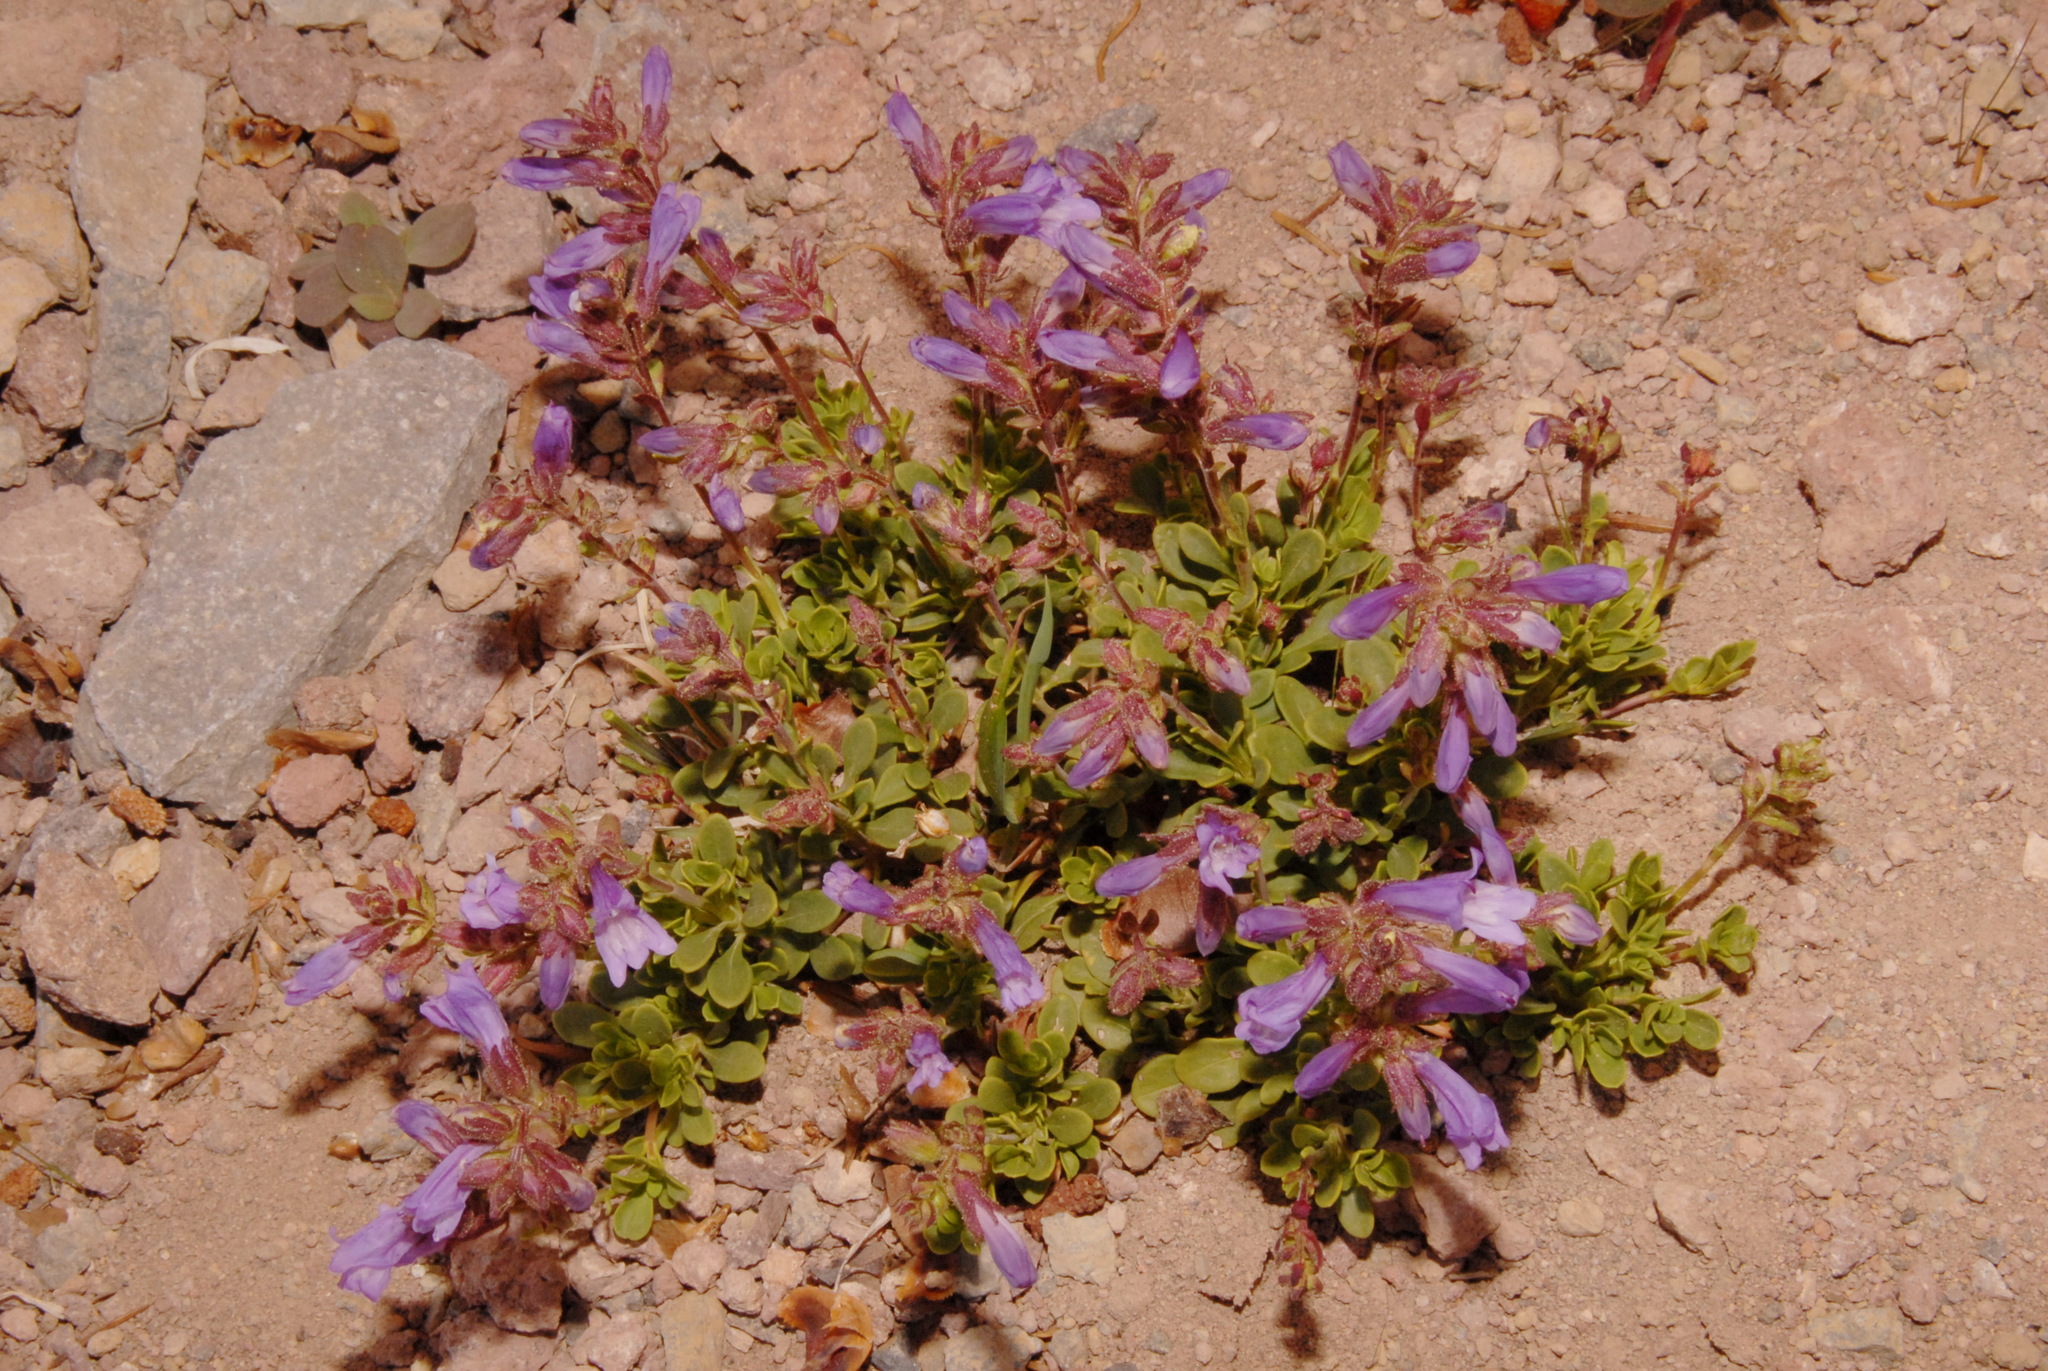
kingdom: Plantae
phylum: Tracheophyta
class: Magnoliopsida
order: Lamiales
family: Plantaginaceae
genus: Penstemon
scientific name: Penstemon davidsonii
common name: Davidson's penstemon
